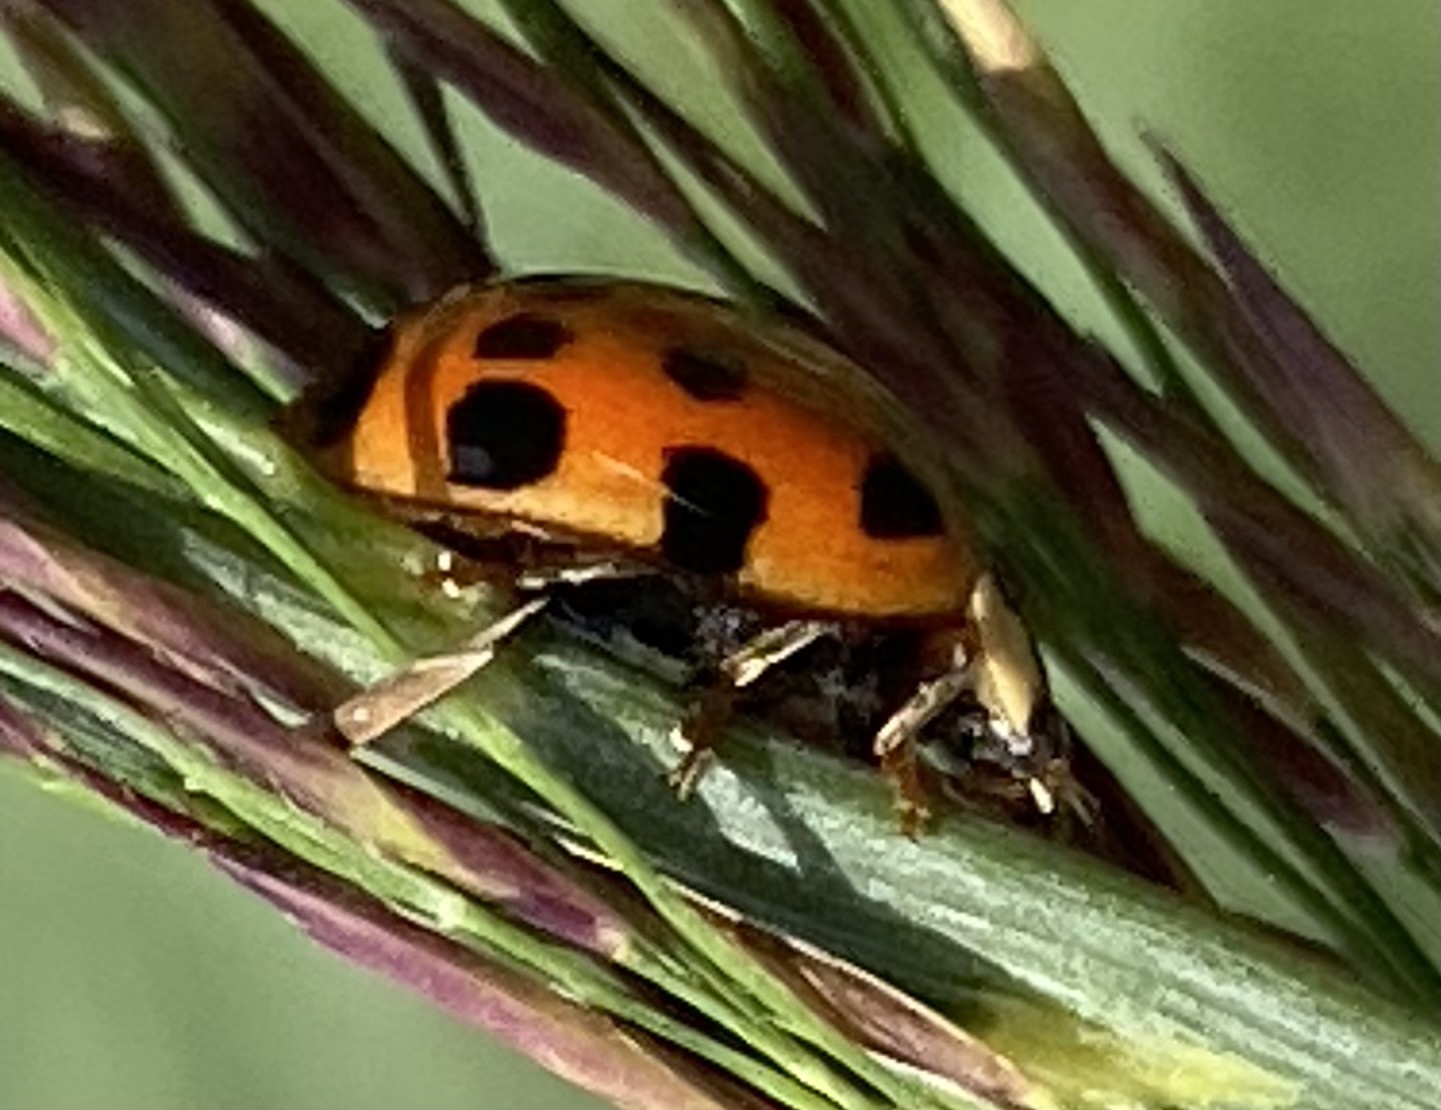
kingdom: Animalia
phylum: Arthropoda
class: Insecta
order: Coleoptera
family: Coccinellidae
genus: Harmonia
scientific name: Harmonia axyridis
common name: Harlequin ladybird
